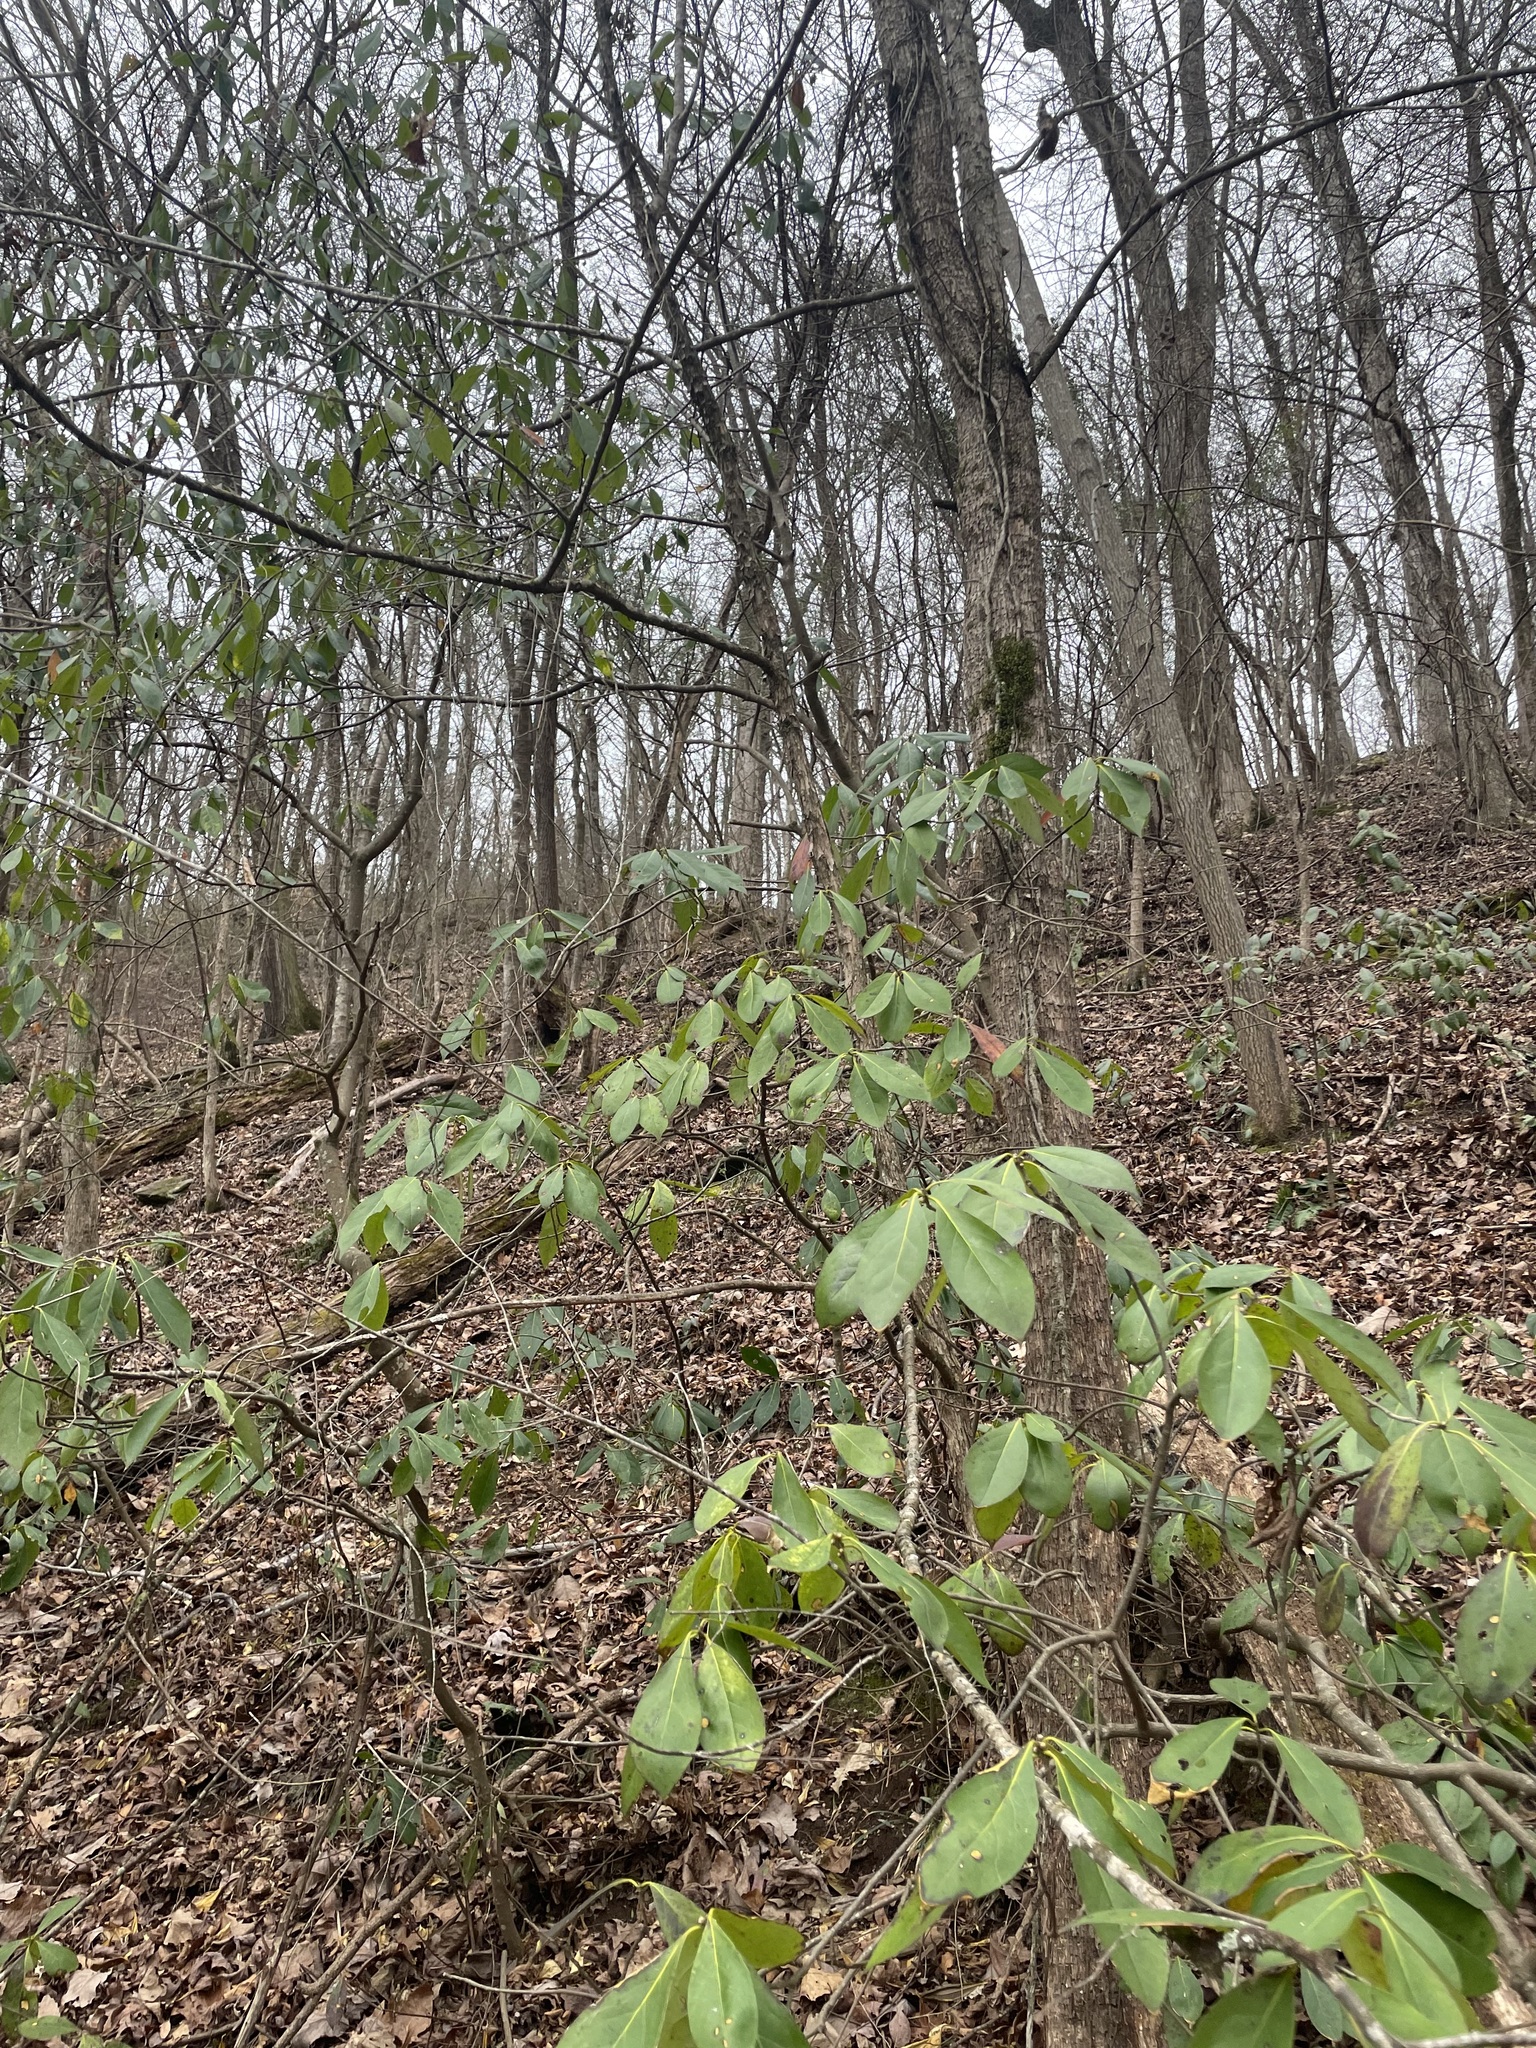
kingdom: Plantae
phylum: Tracheophyta
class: Magnoliopsida
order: Ericales
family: Symplocaceae
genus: Symplocos
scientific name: Symplocos tinctoria
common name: Horse-sugar
